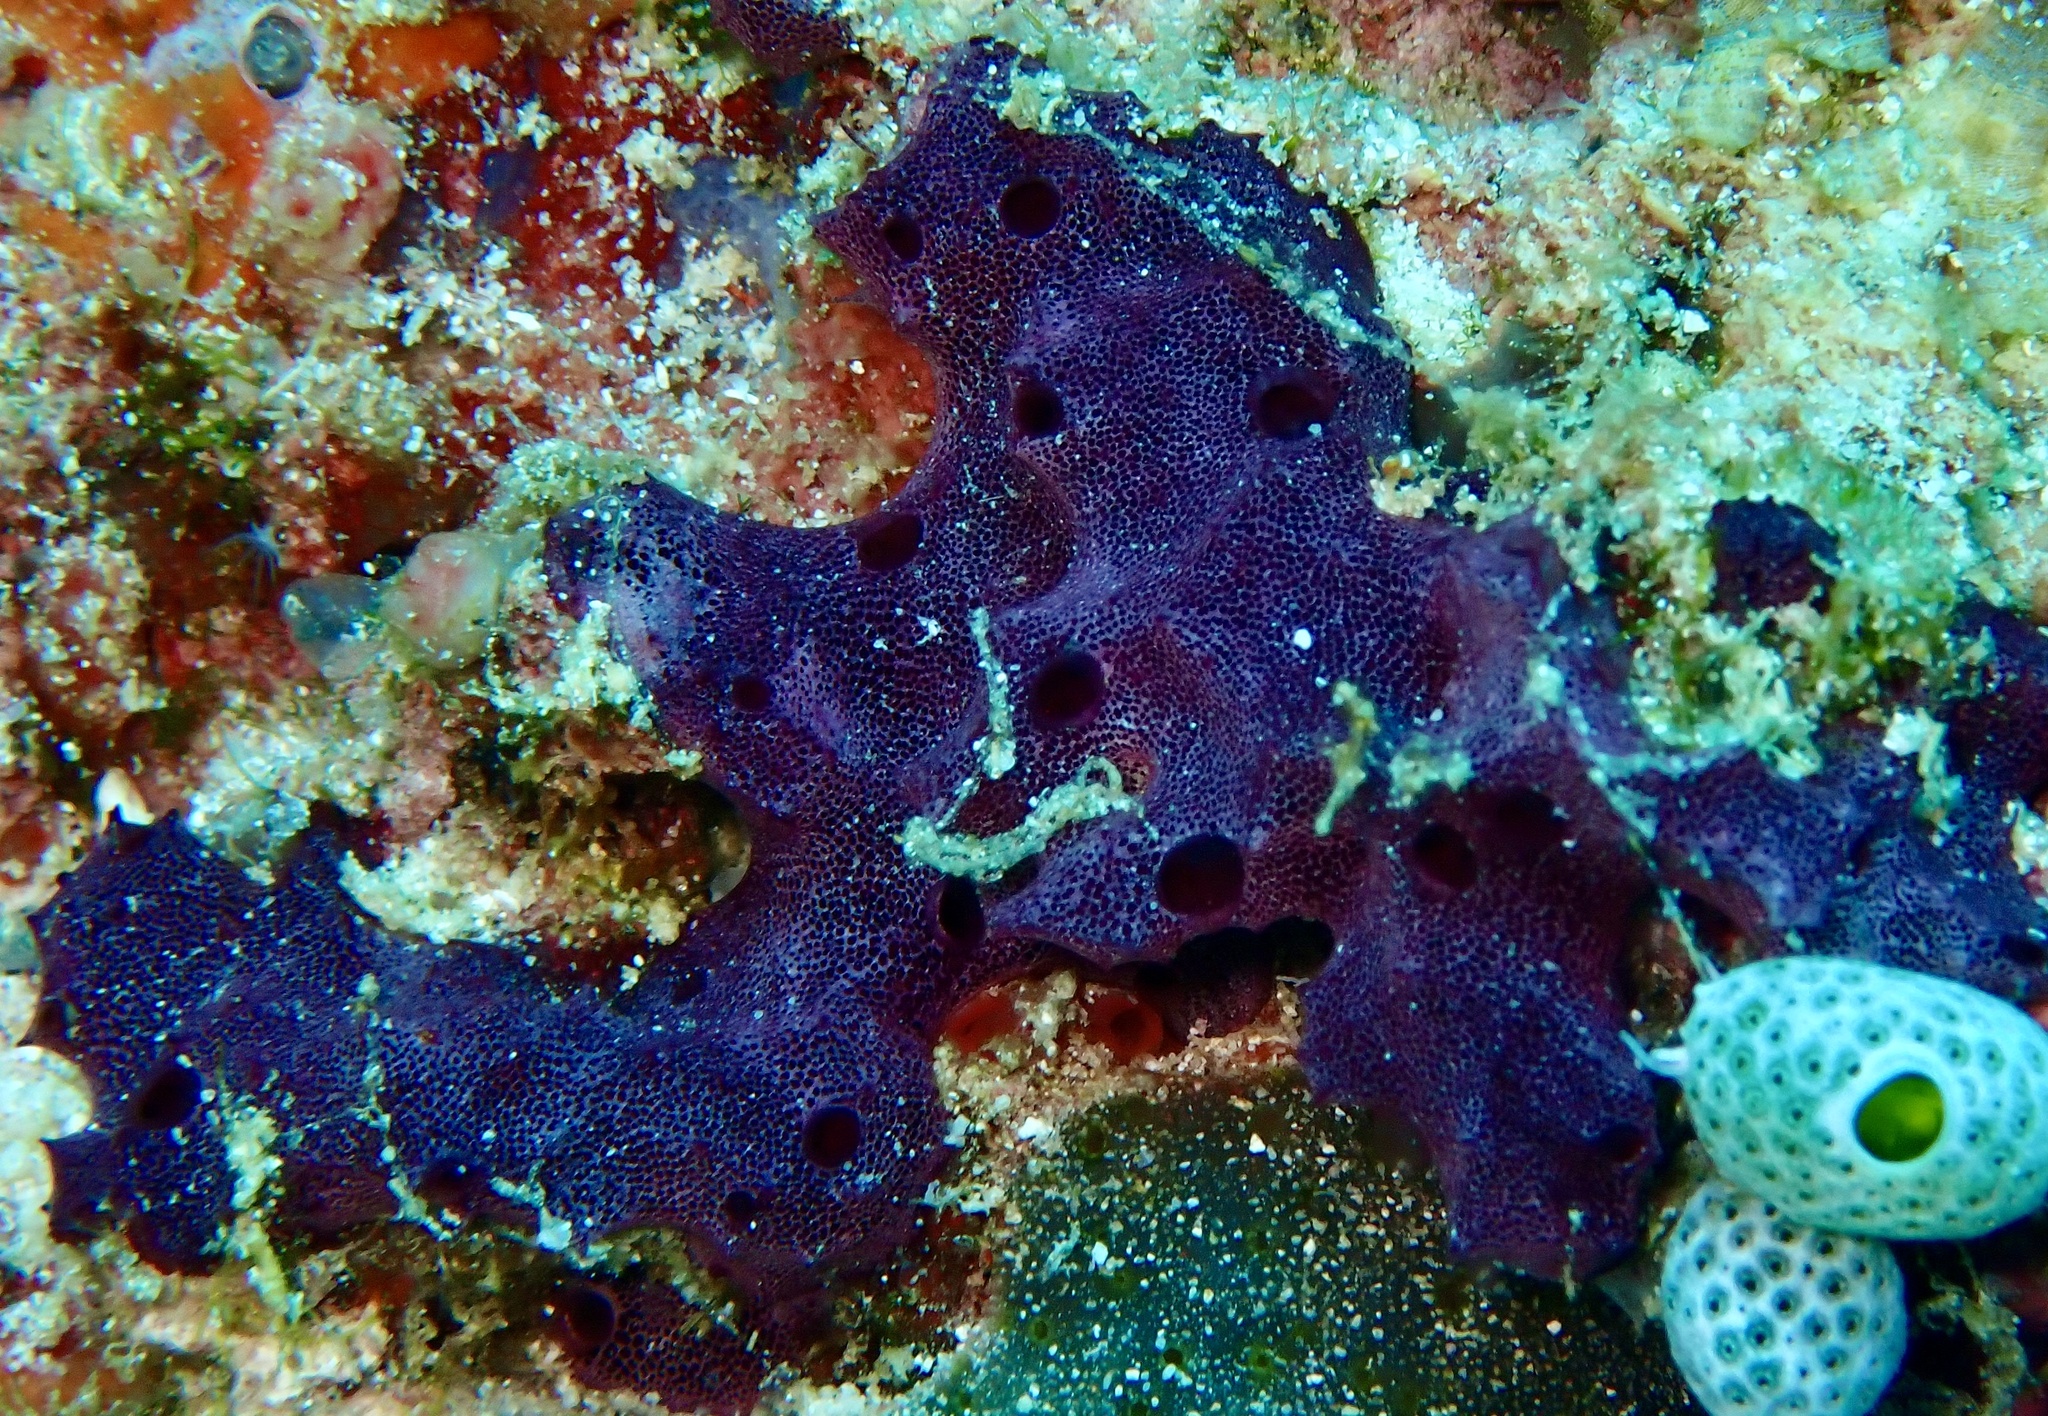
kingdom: Animalia
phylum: Porifera
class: Demospongiae
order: Dendroceratida
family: Darwinellidae
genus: Chelonaplysilla
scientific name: Chelonaplysilla violacea
